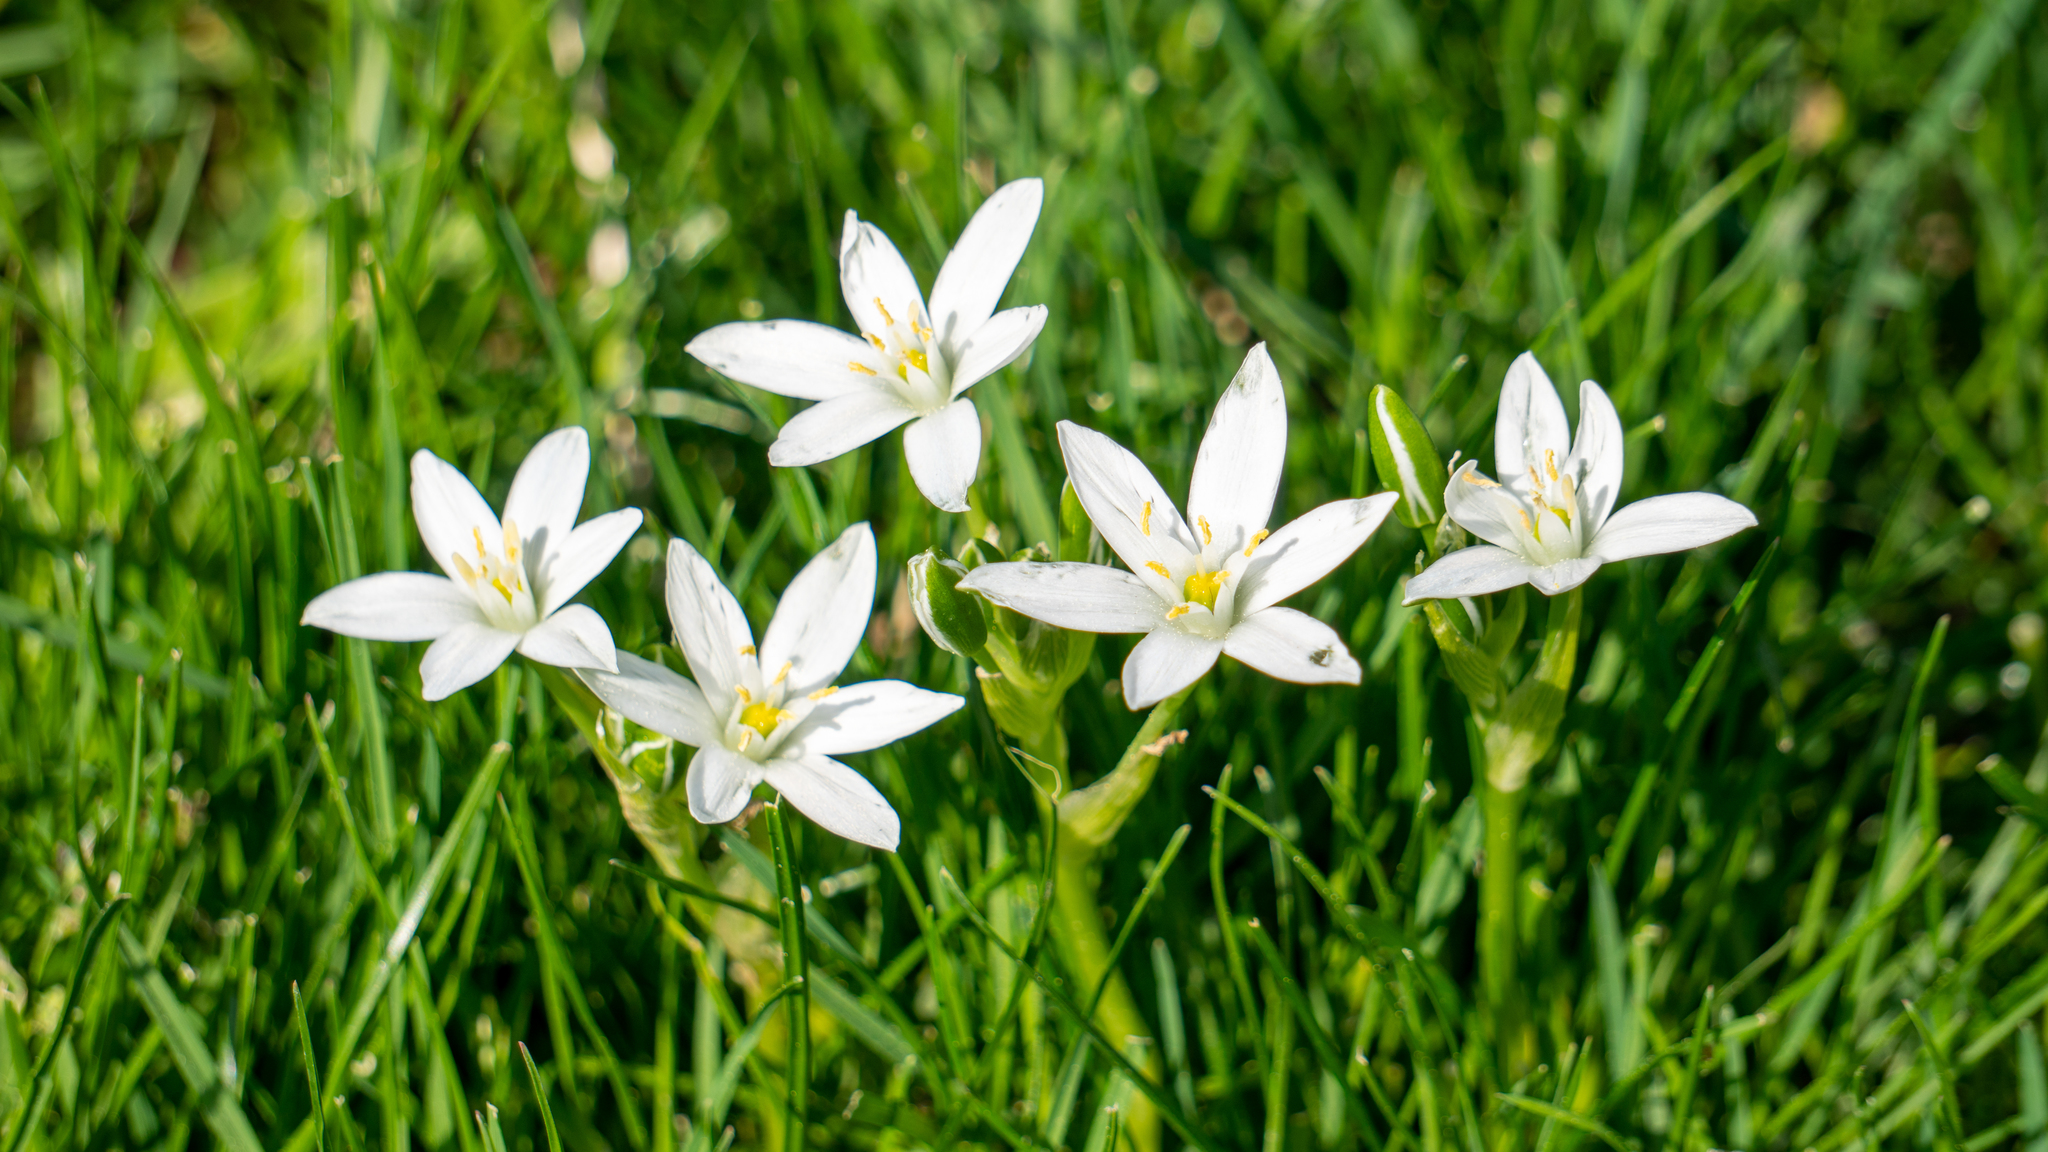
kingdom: Plantae
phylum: Tracheophyta
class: Liliopsida
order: Asparagales
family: Asparagaceae
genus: Ornithogalum
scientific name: Ornithogalum umbellatum
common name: Garden star-of-bethlehem
